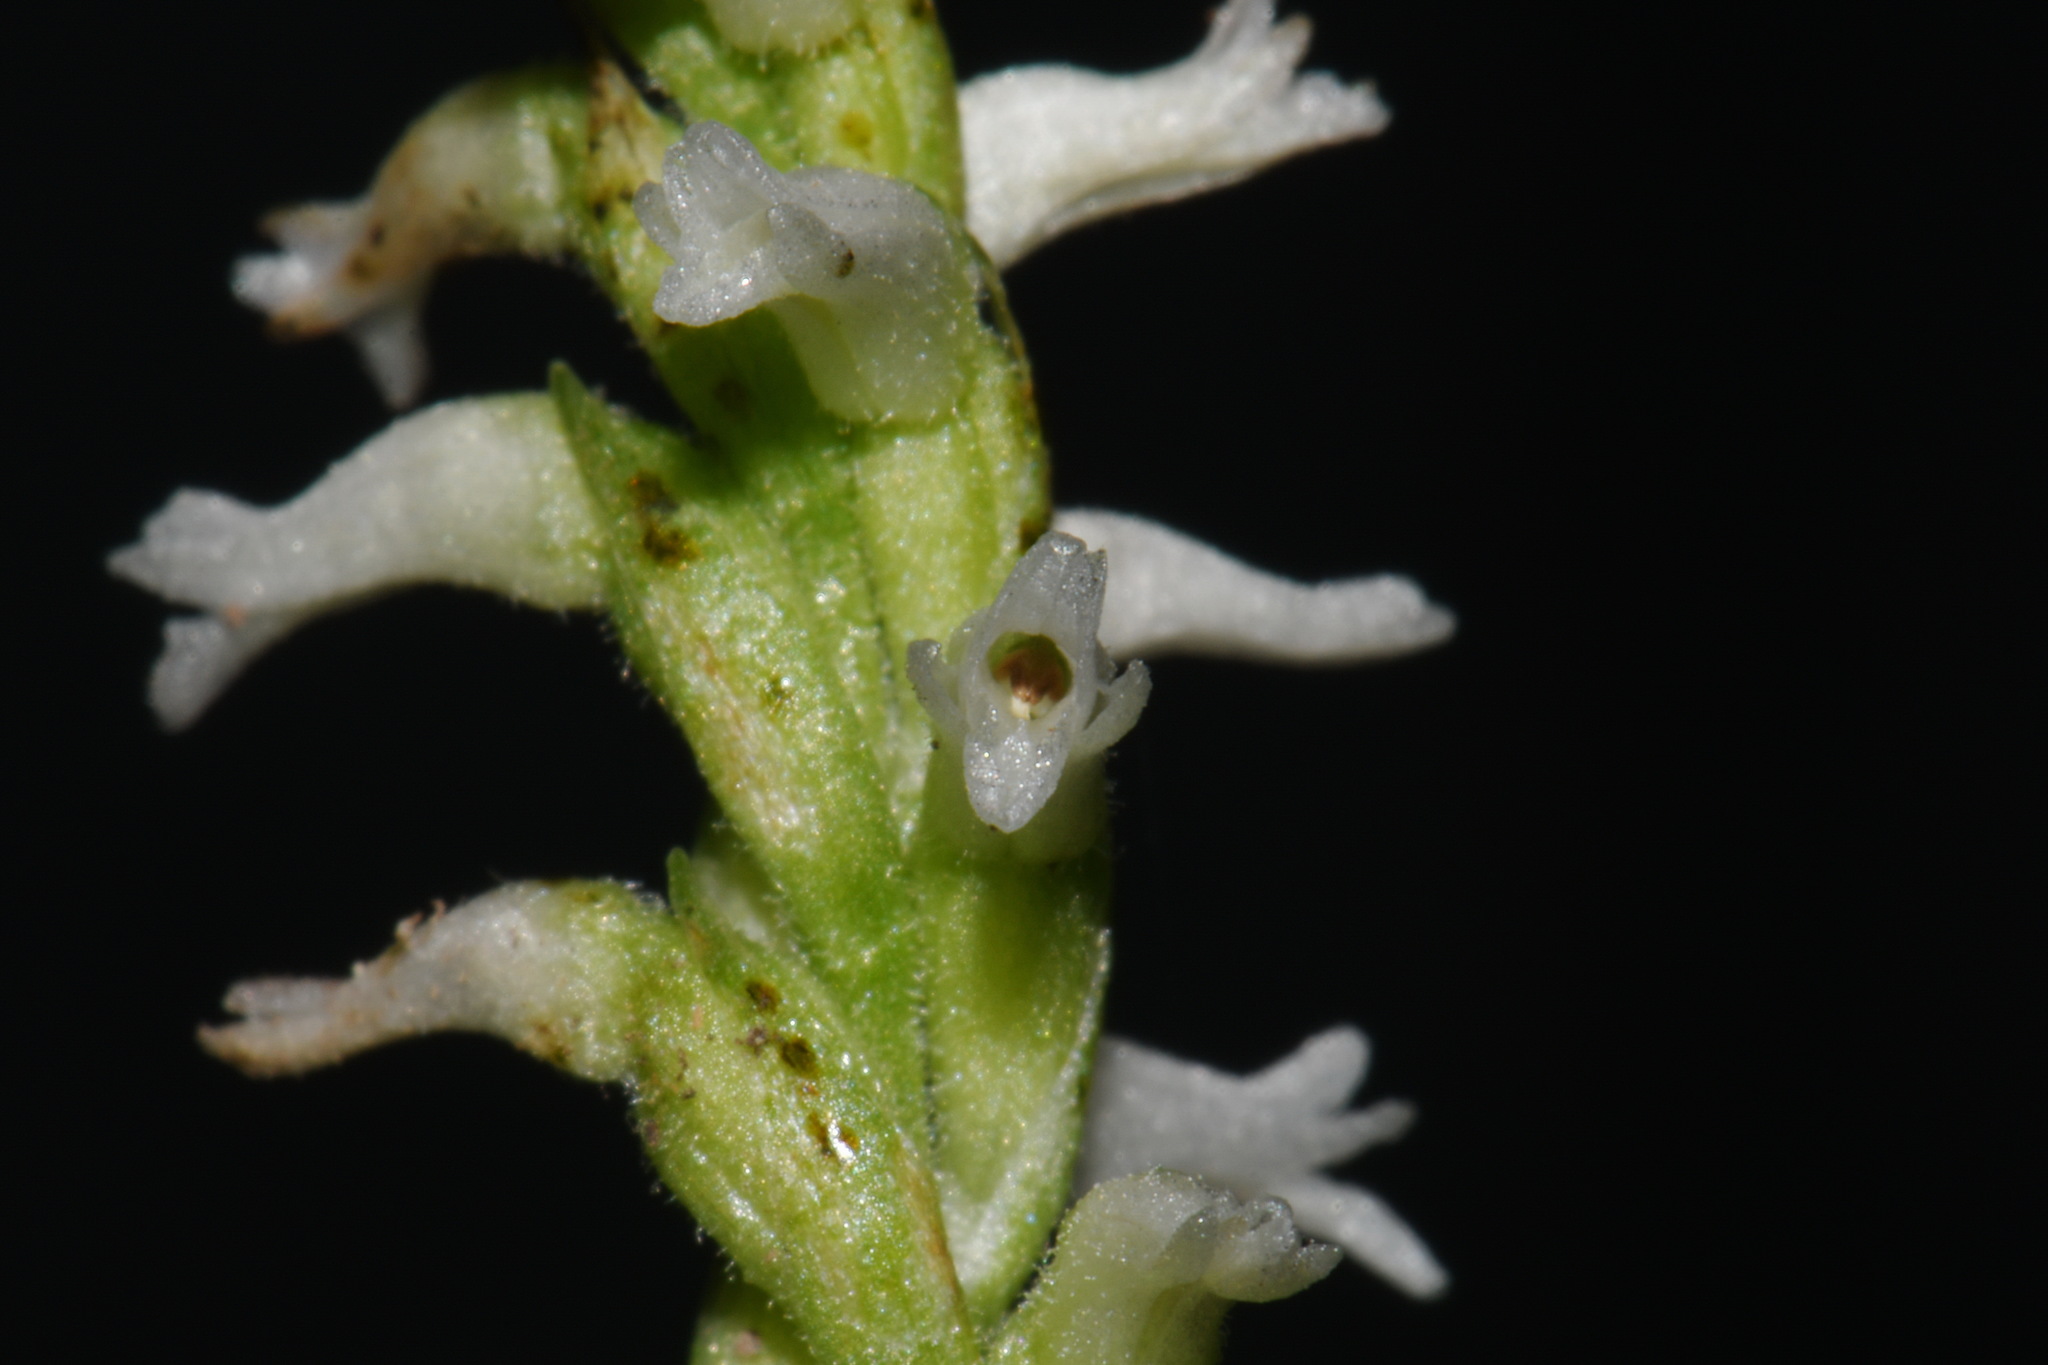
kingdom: Plantae
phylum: Tracheophyta
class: Liliopsida
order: Asparagales
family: Orchidaceae
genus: Spiranthes
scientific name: Spiranthes ovalis
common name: October ladies'-tresses
